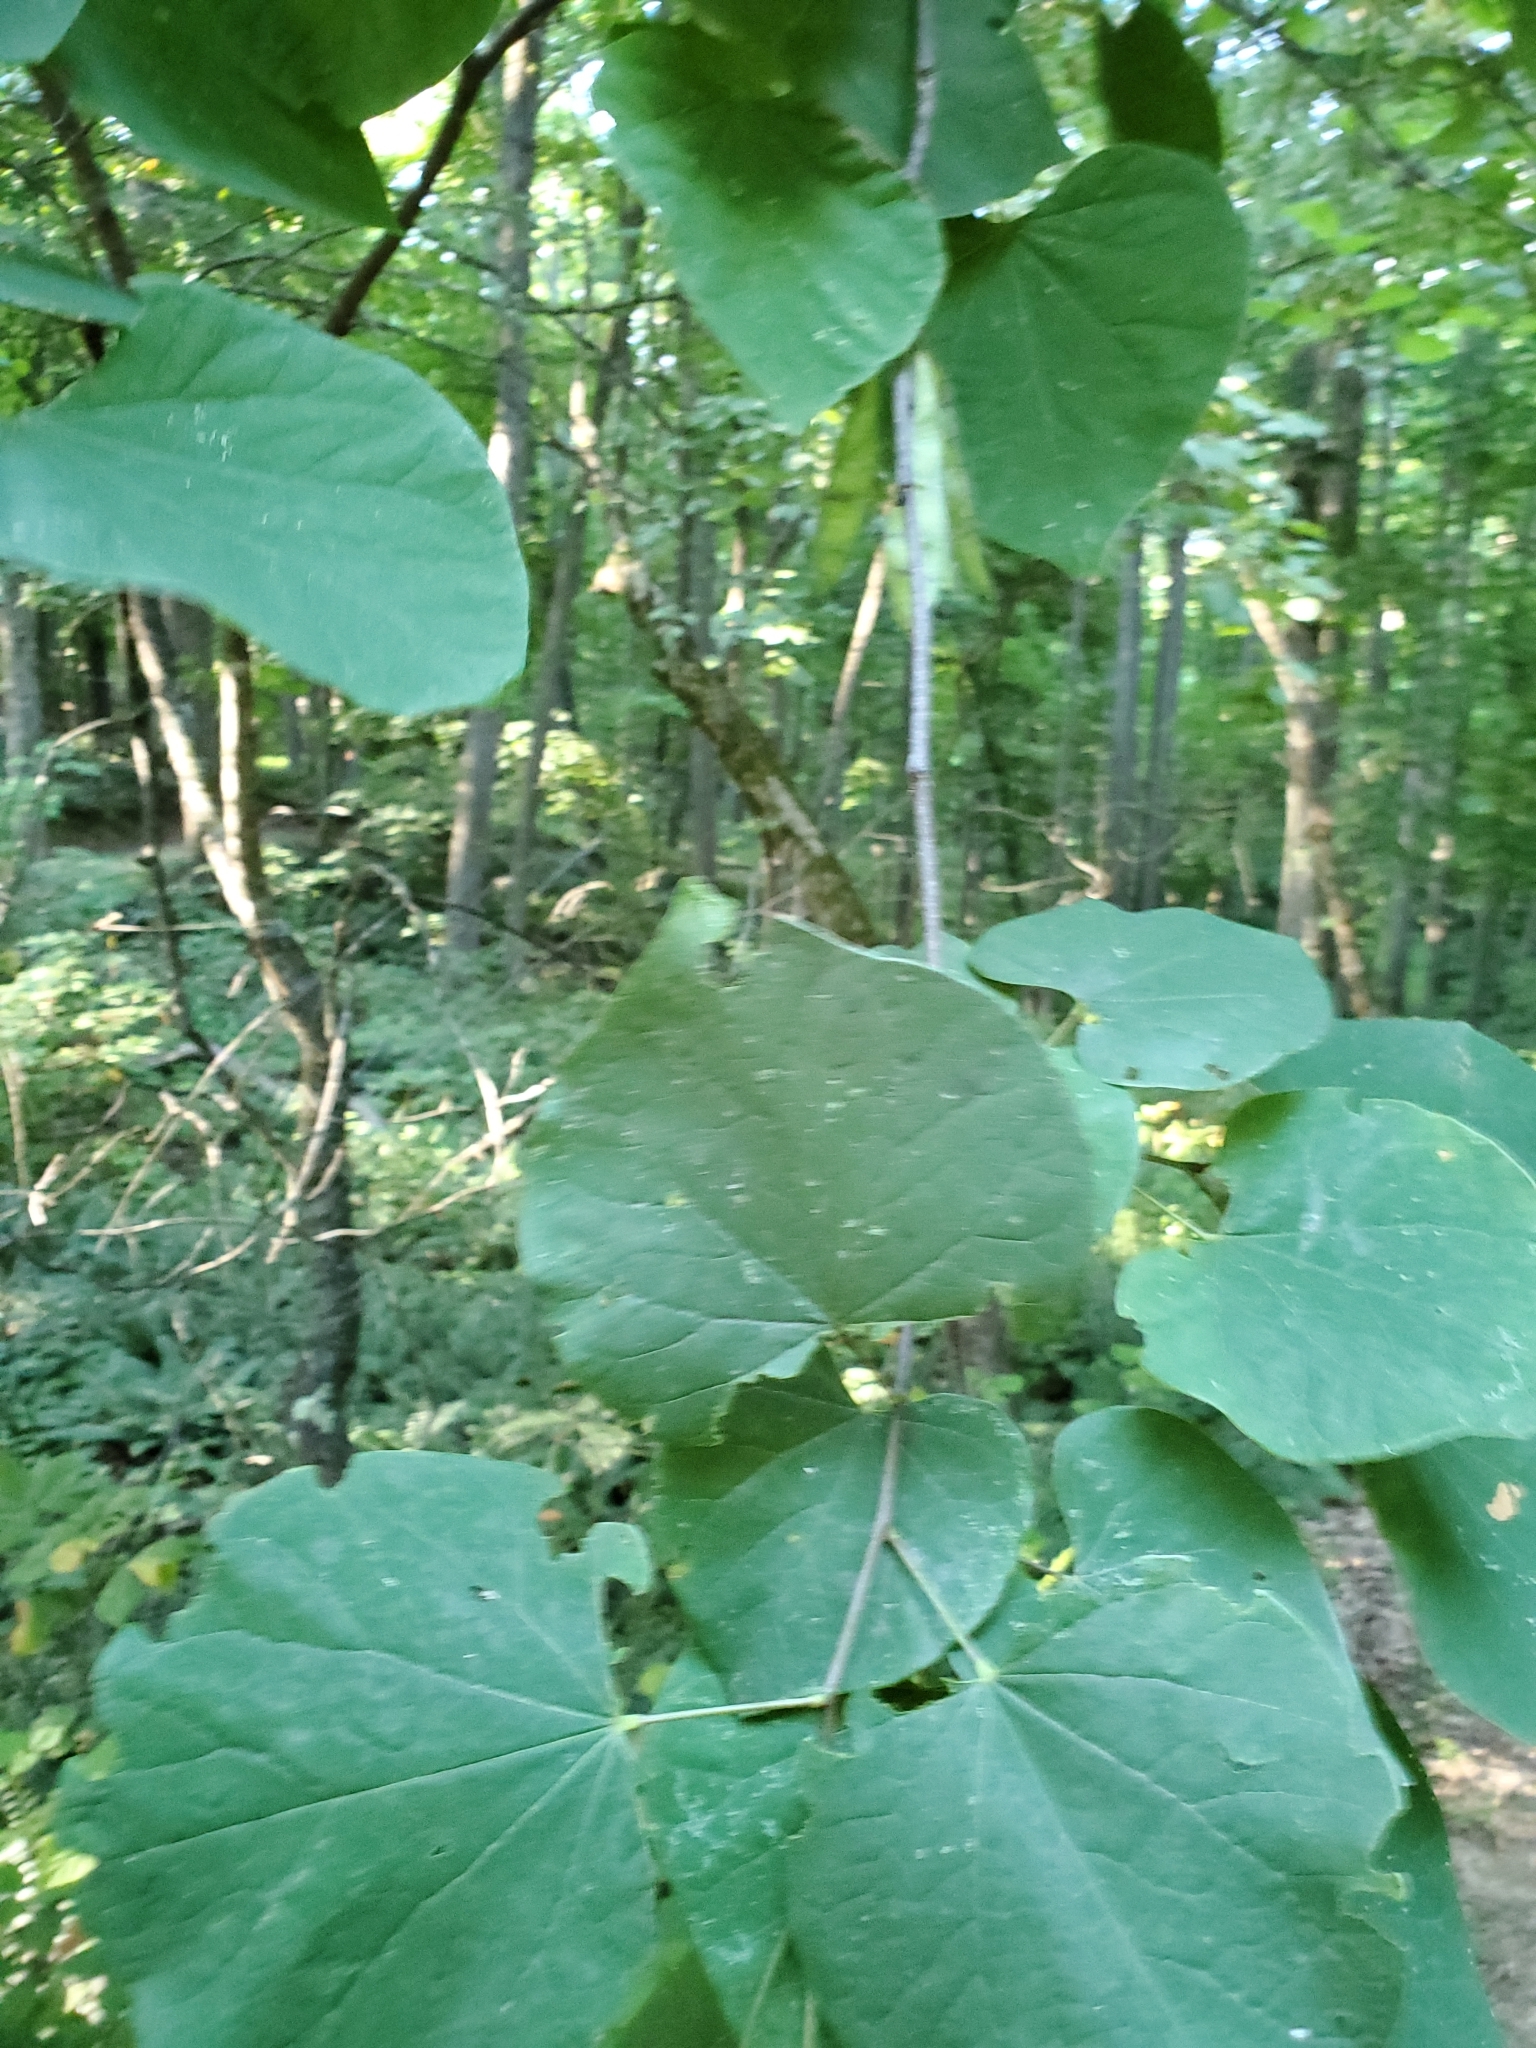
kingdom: Plantae
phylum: Tracheophyta
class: Magnoliopsida
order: Fabales
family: Fabaceae
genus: Cercis
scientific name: Cercis canadensis
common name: Eastern redbud
